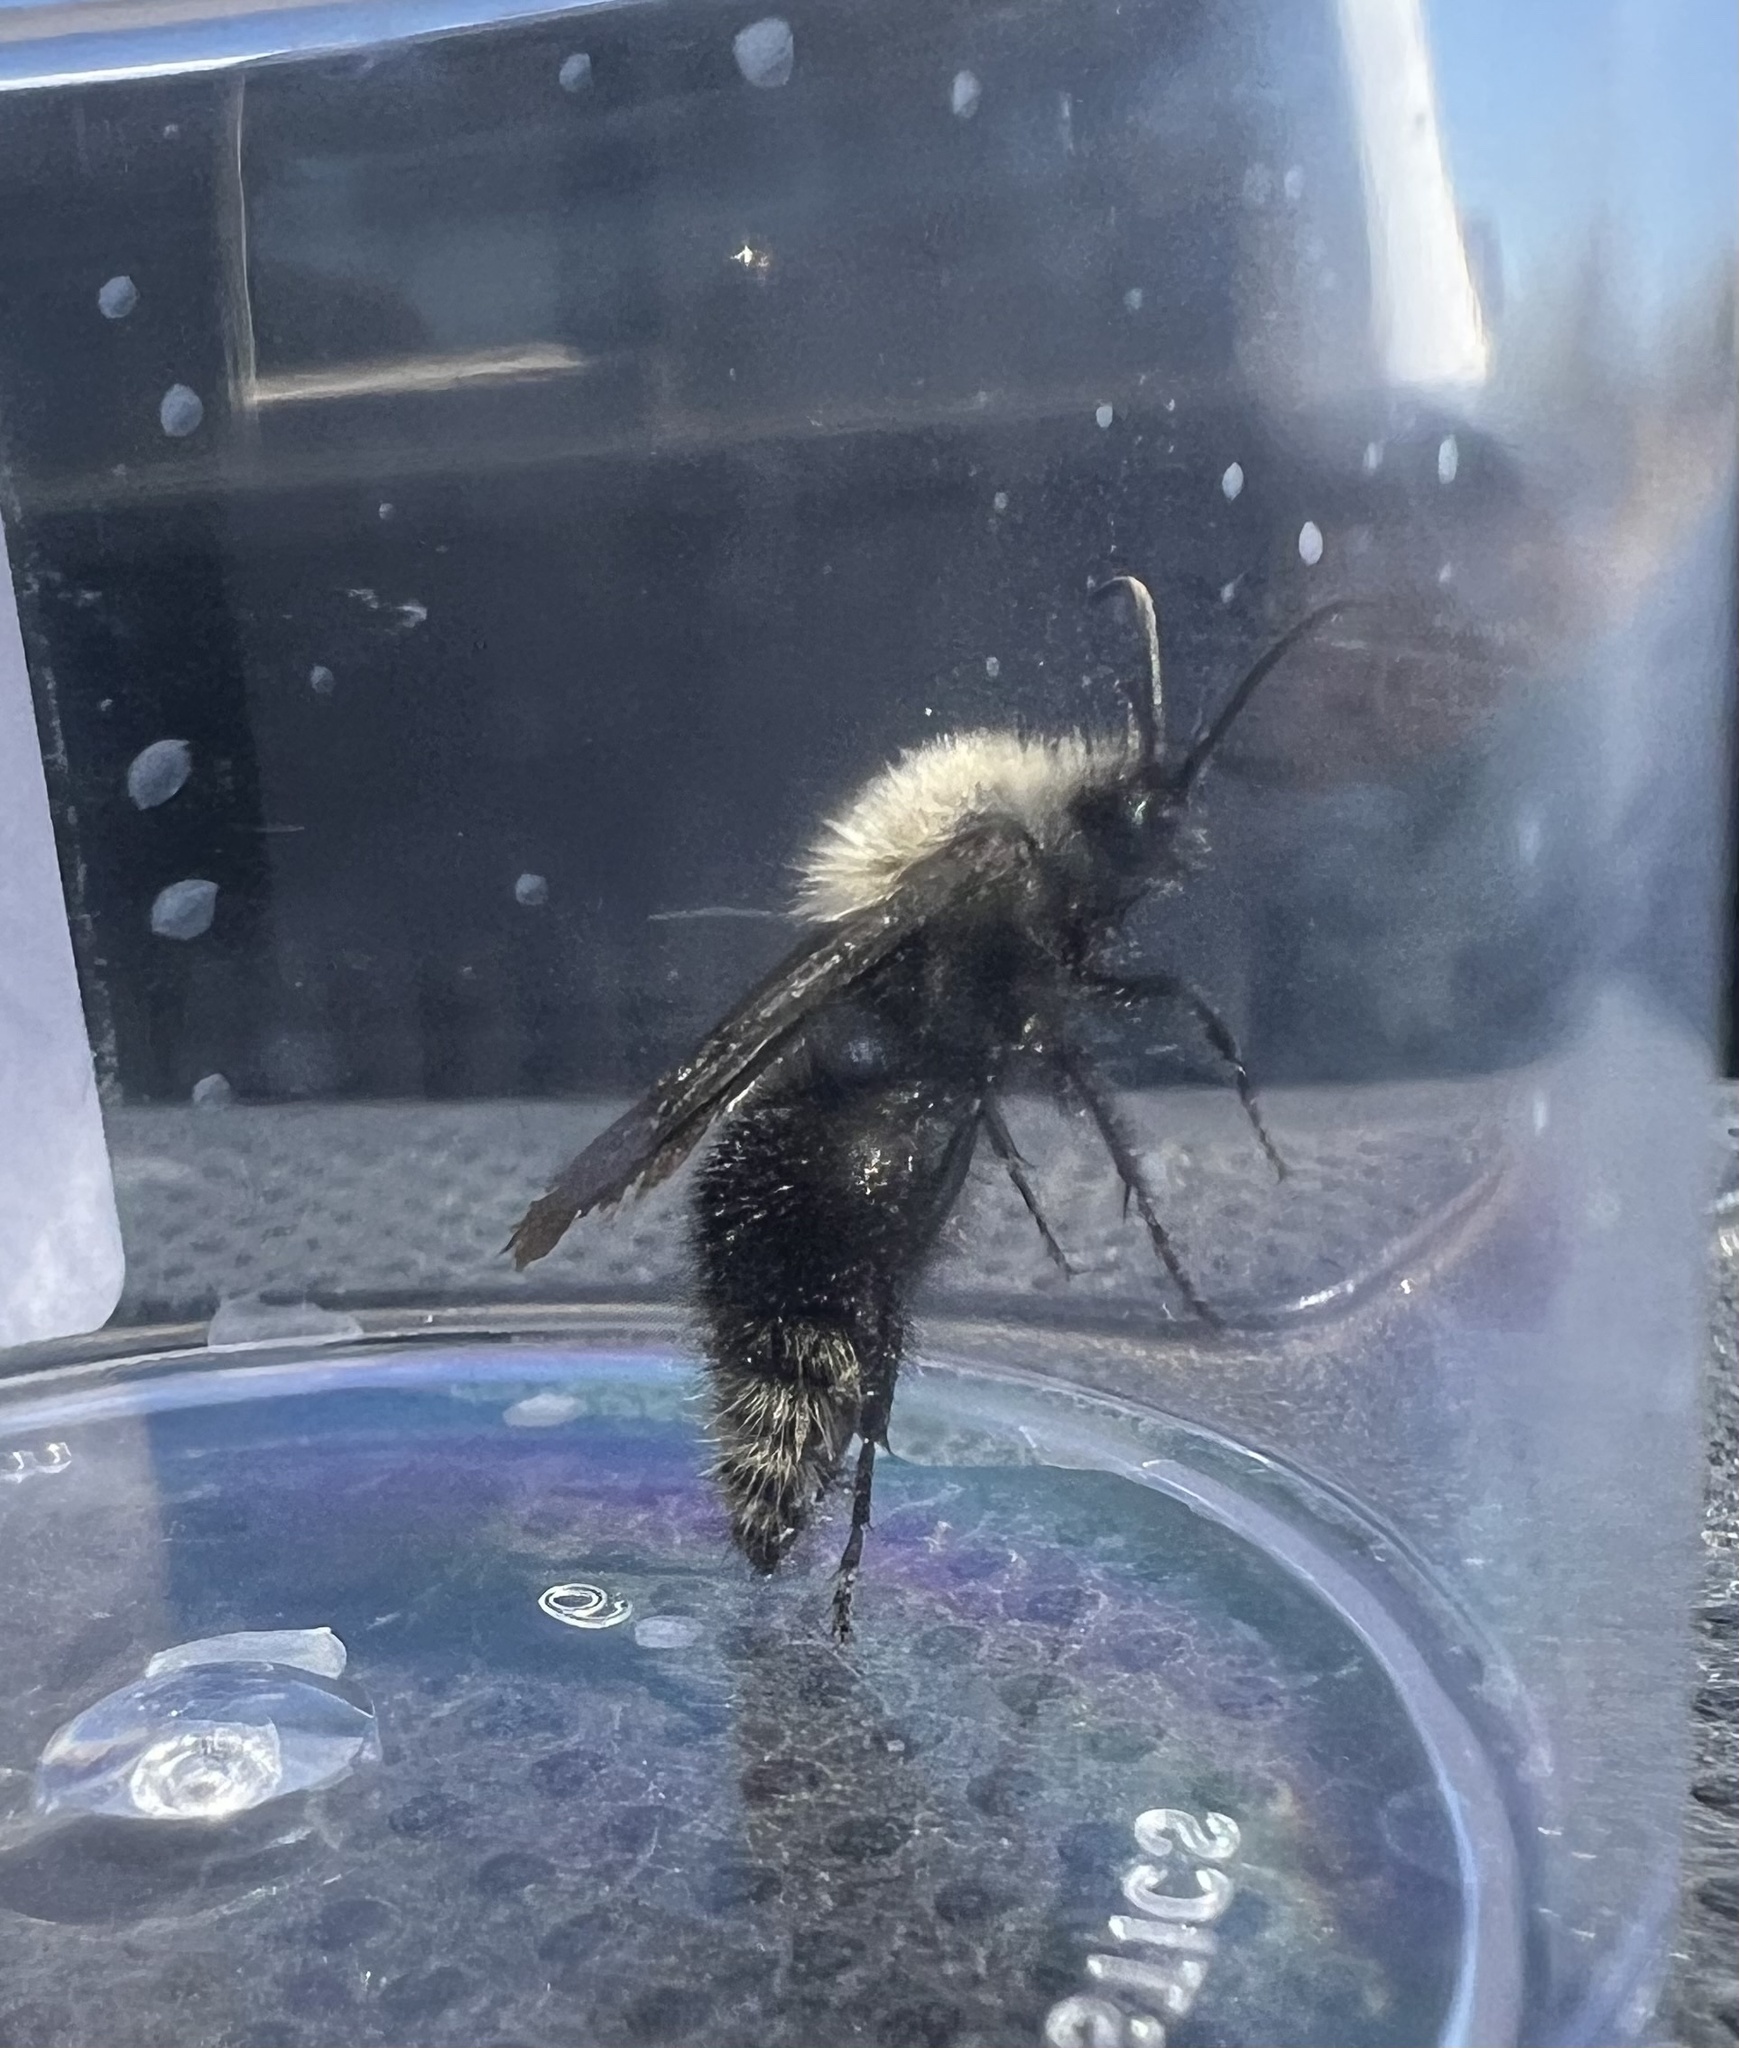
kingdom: Animalia
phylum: Arthropoda
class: Insecta
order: Hymenoptera
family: Mutillidae
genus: Dasymutilla
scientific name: Dasymutilla
